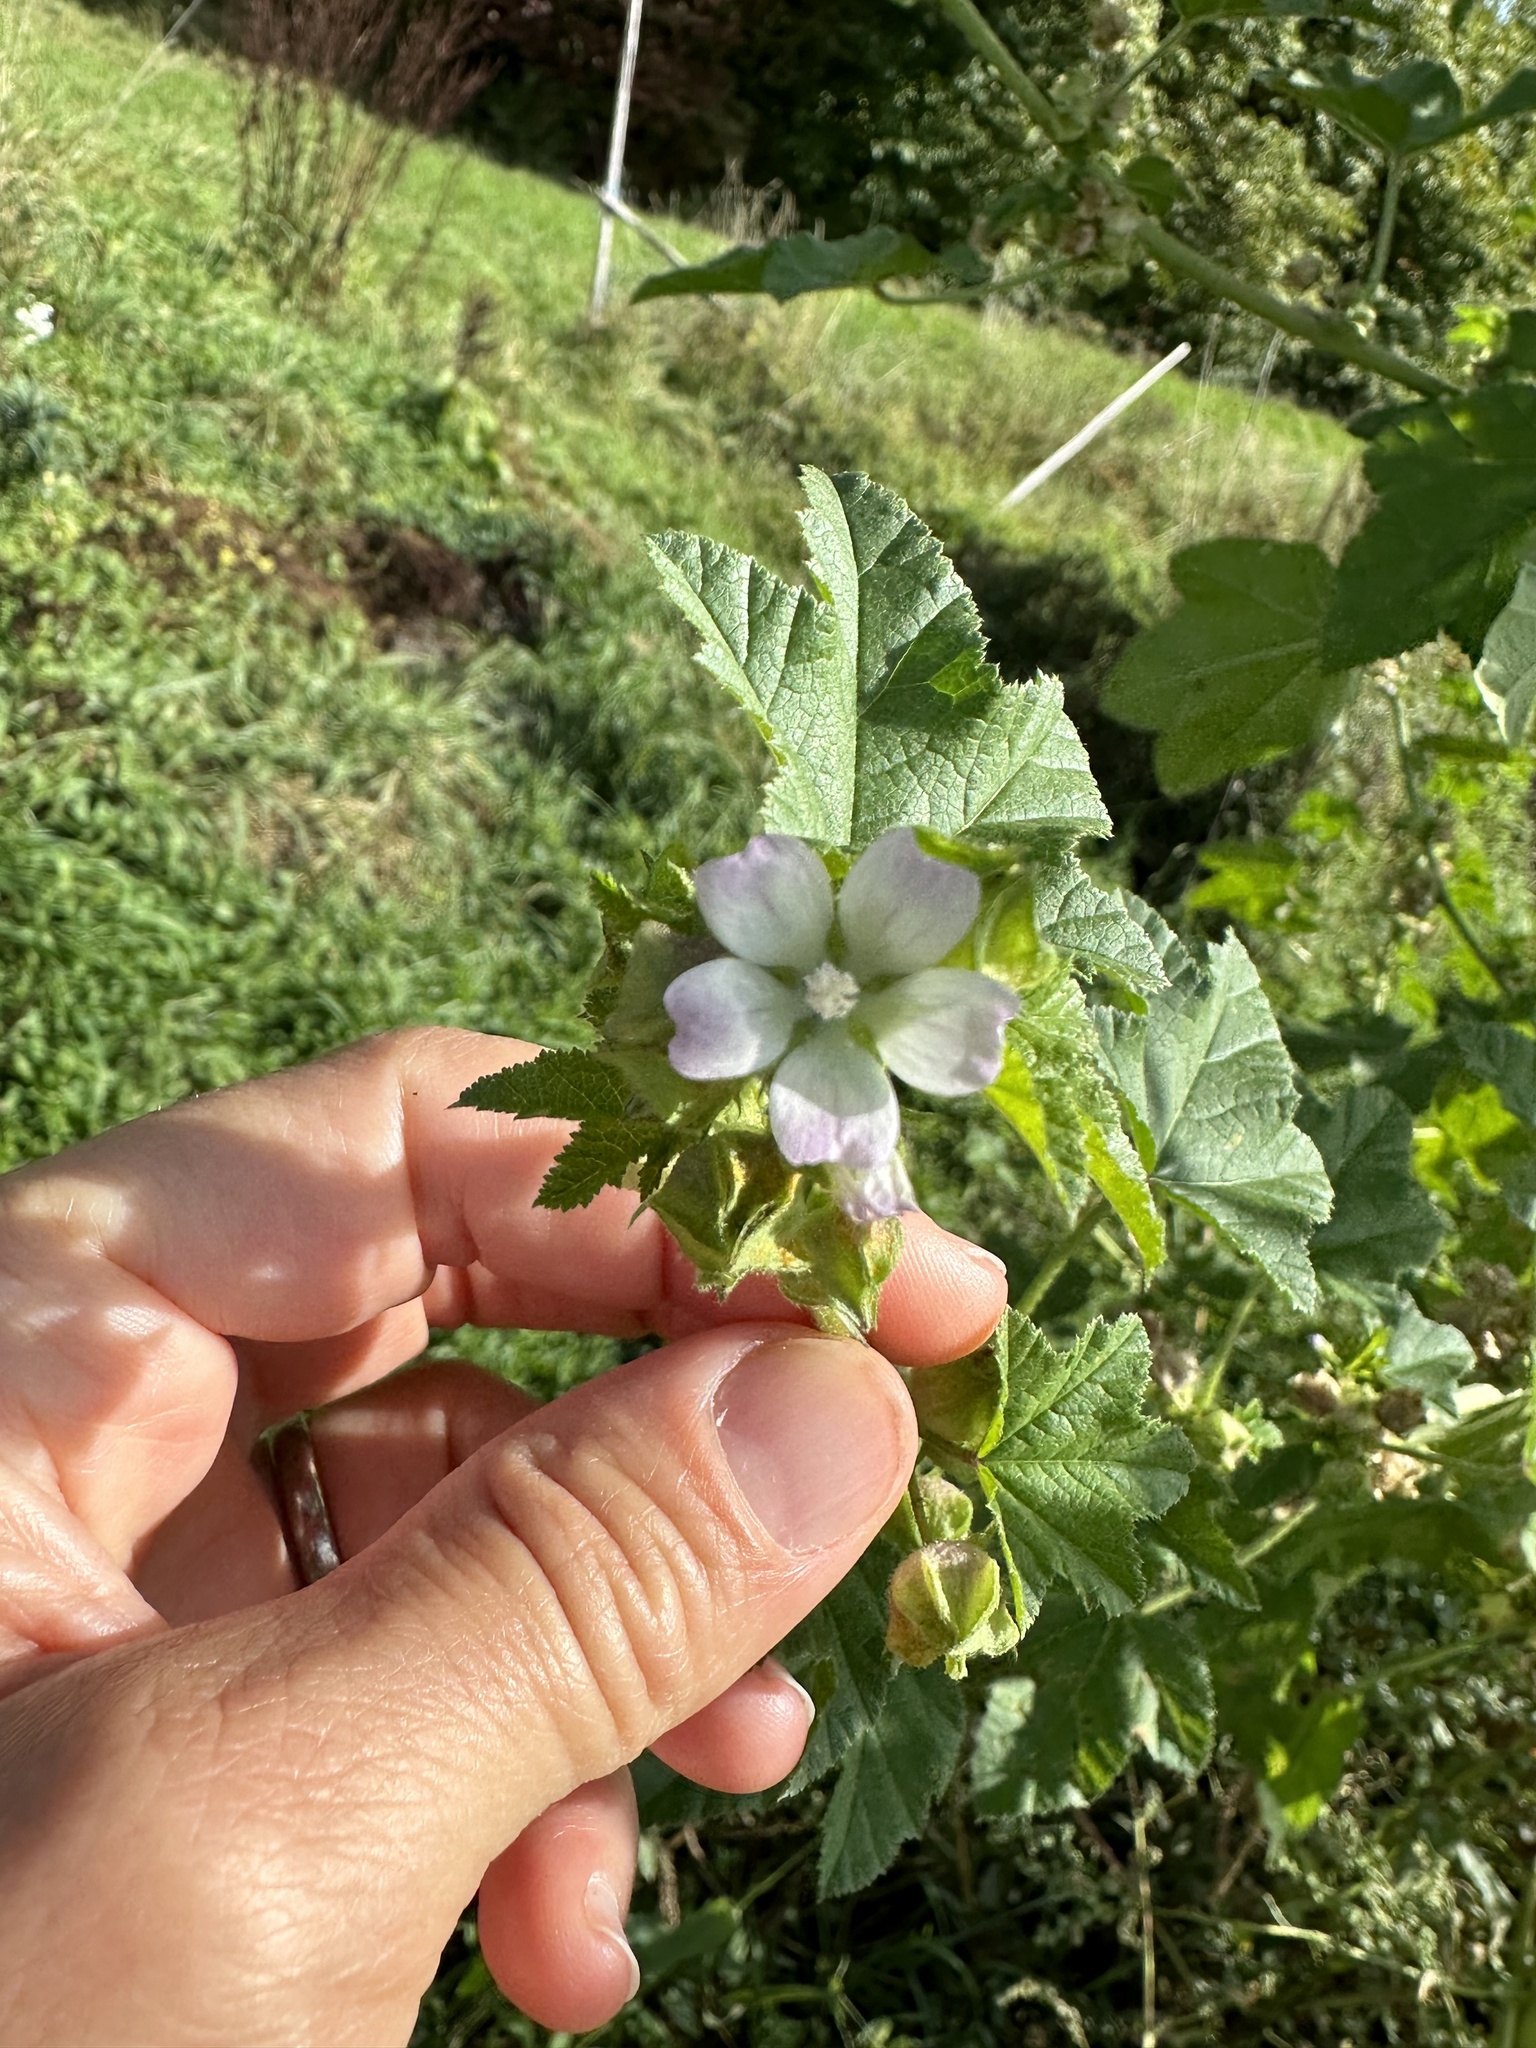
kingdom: Plantae
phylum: Tracheophyta
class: Magnoliopsida
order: Malvales
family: Malvaceae
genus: Malva
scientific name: Malva verticillata
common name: Chinese mallow
